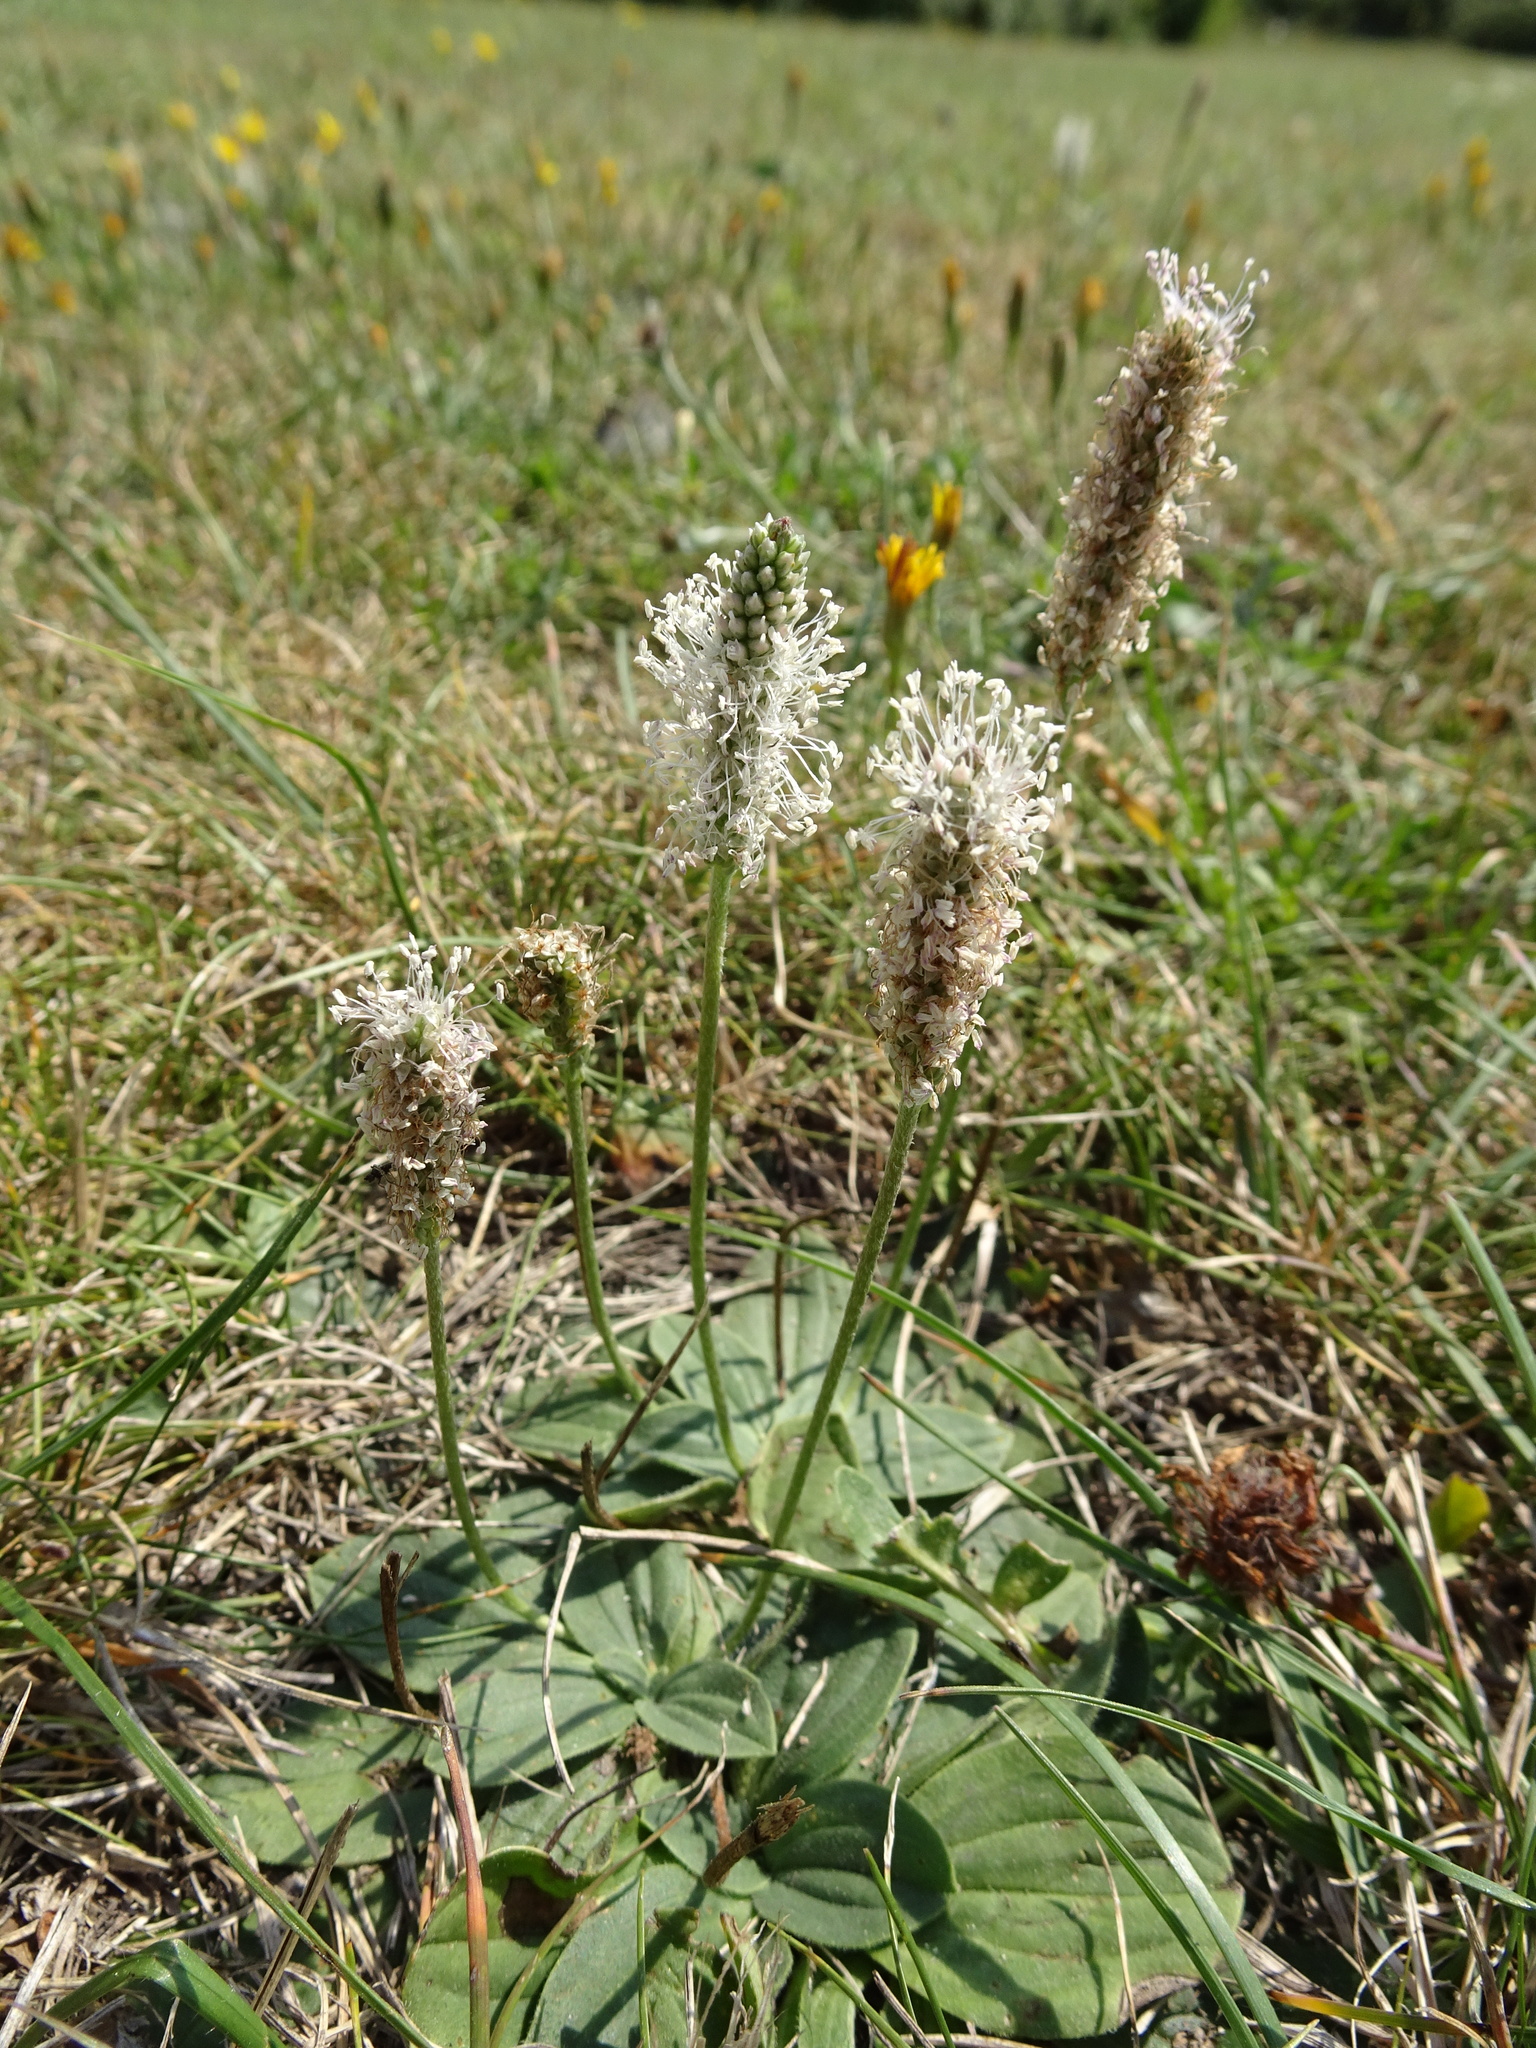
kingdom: Plantae
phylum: Tracheophyta
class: Magnoliopsida
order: Lamiales
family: Plantaginaceae
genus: Plantago
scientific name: Plantago media
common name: Hoary plantain
